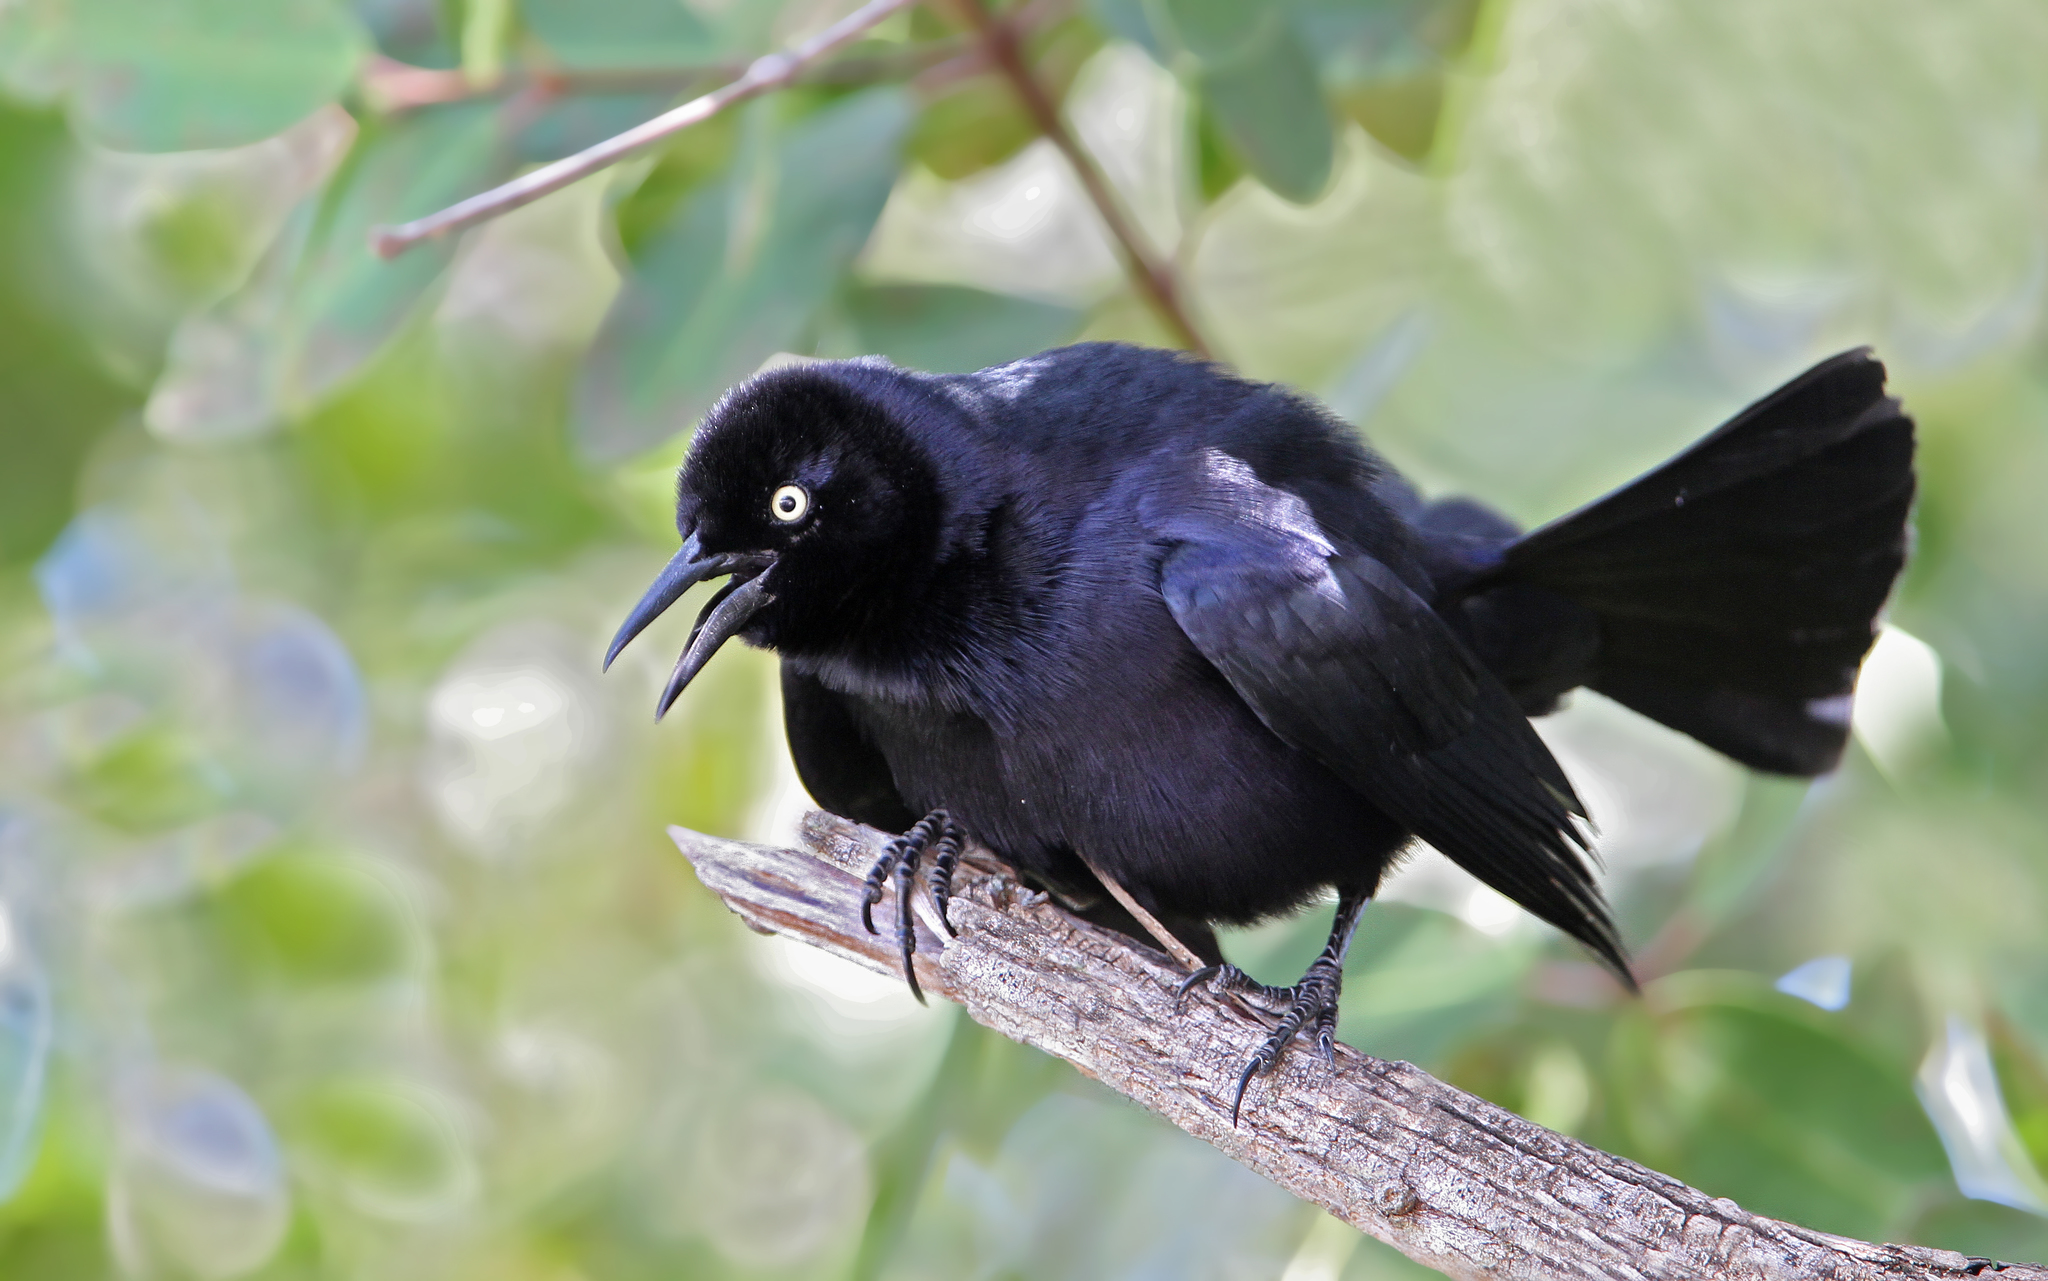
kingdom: Animalia
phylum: Chordata
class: Aves
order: Passeriformes
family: Icteridae
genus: Quiscalus
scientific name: Quiscalus niger
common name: Greater antillean grackle
